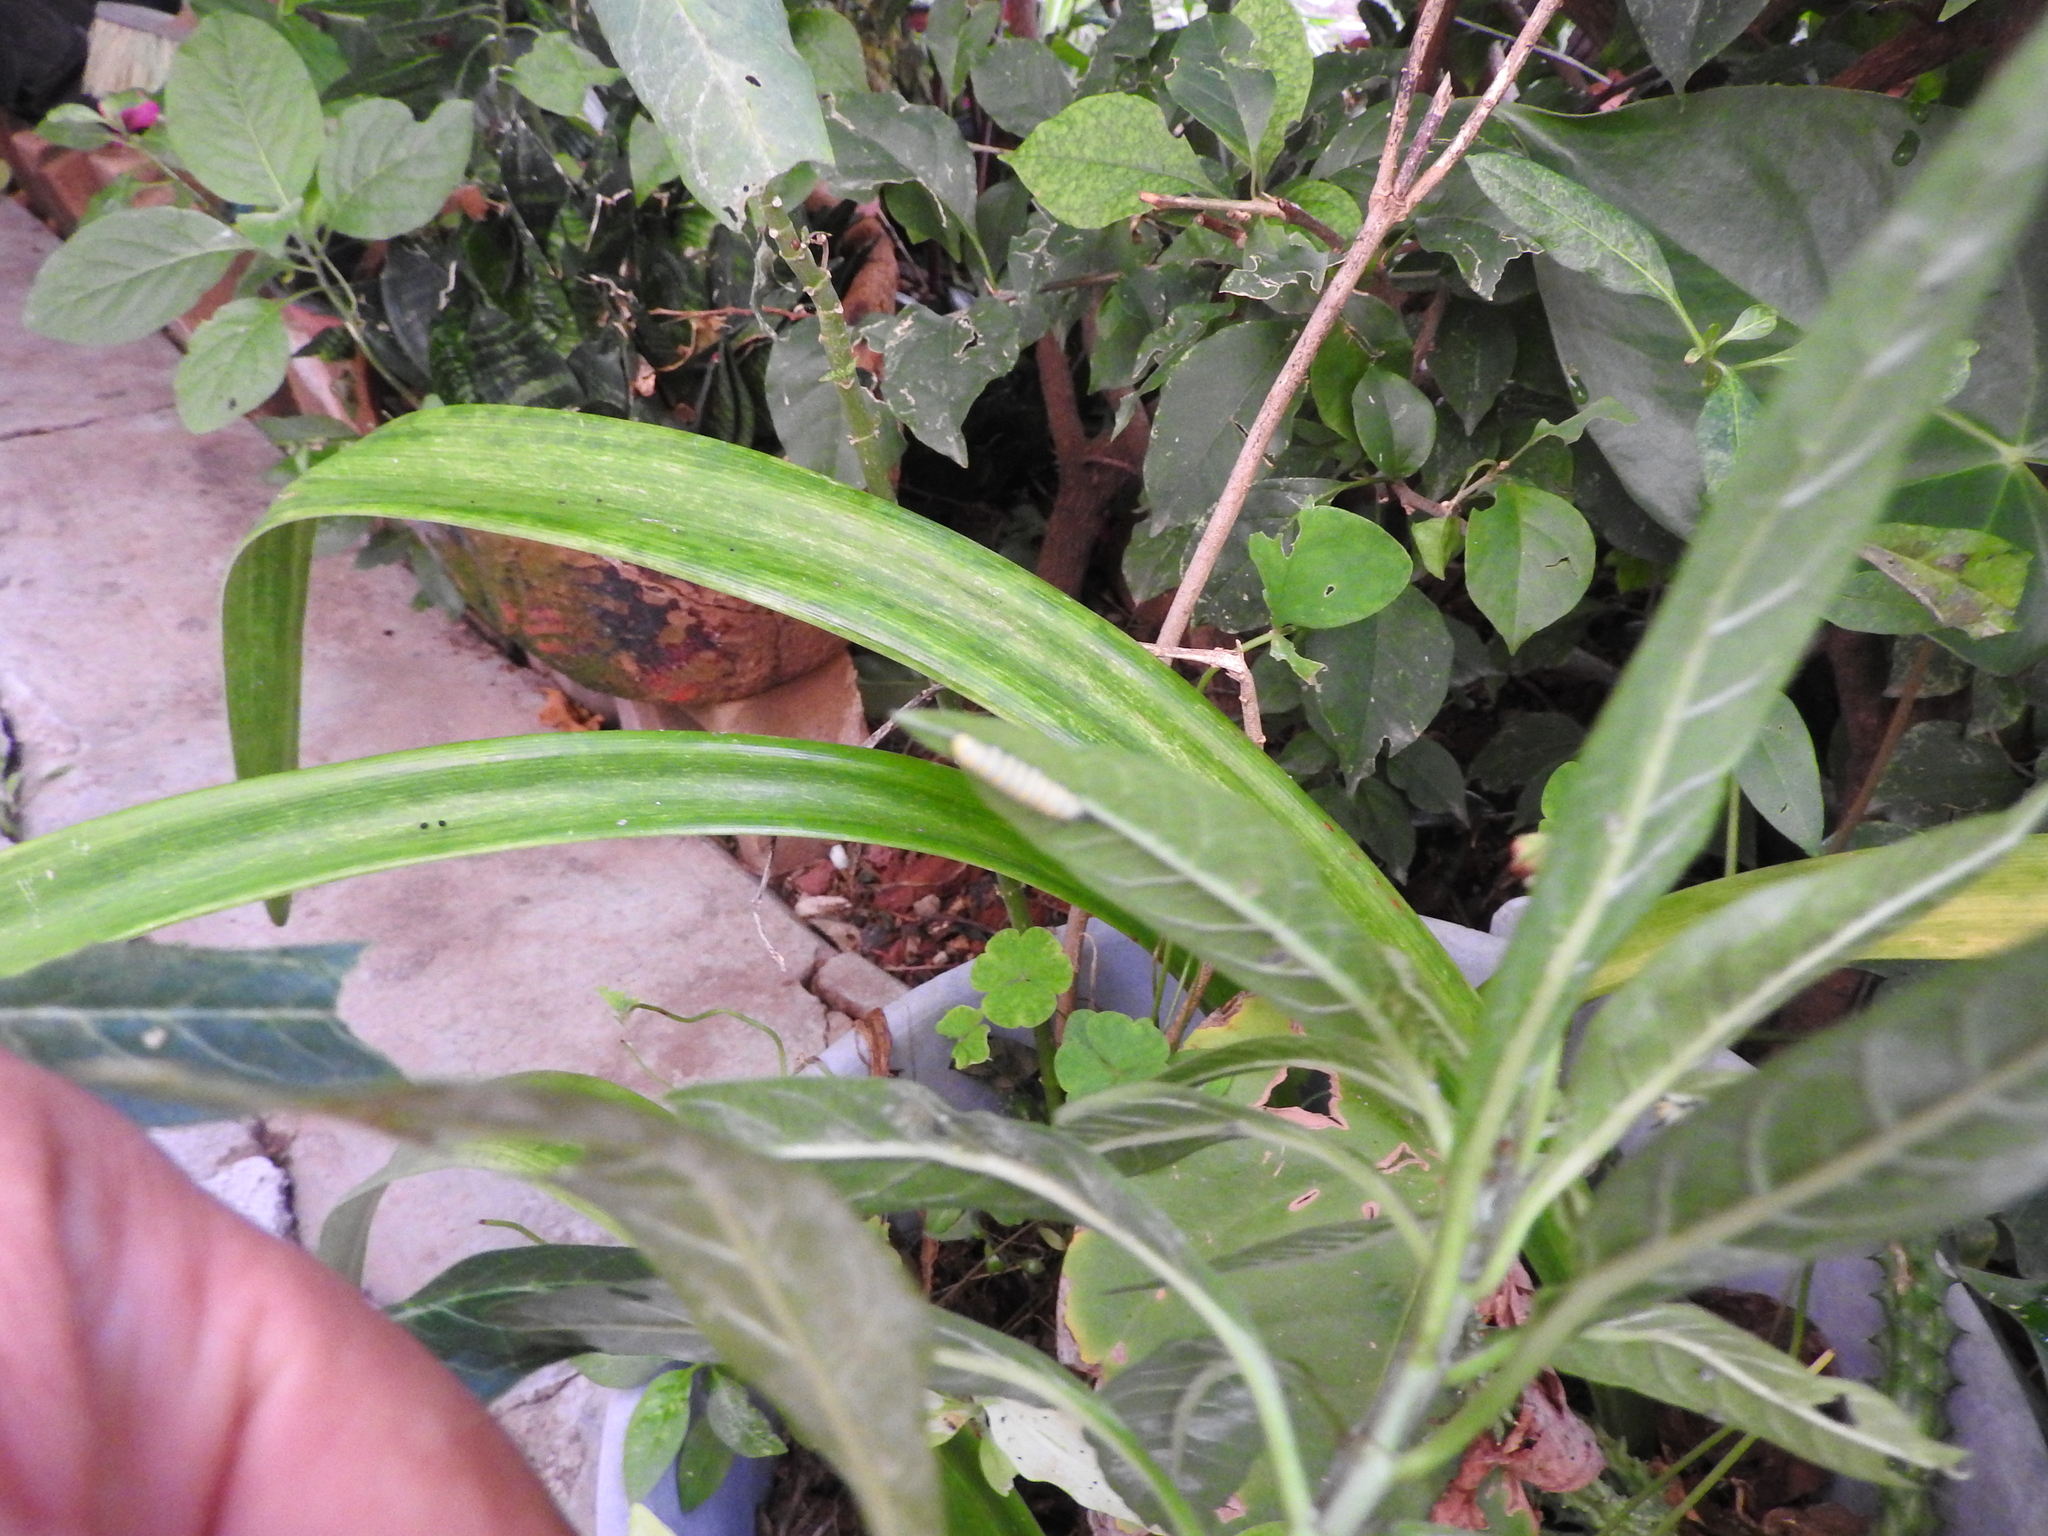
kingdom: Animalia
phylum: Arthropoda
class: Insecta
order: Lepidoptera
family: Nymphalidae
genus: Danaus
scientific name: Danaus plexippus
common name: Monarch
